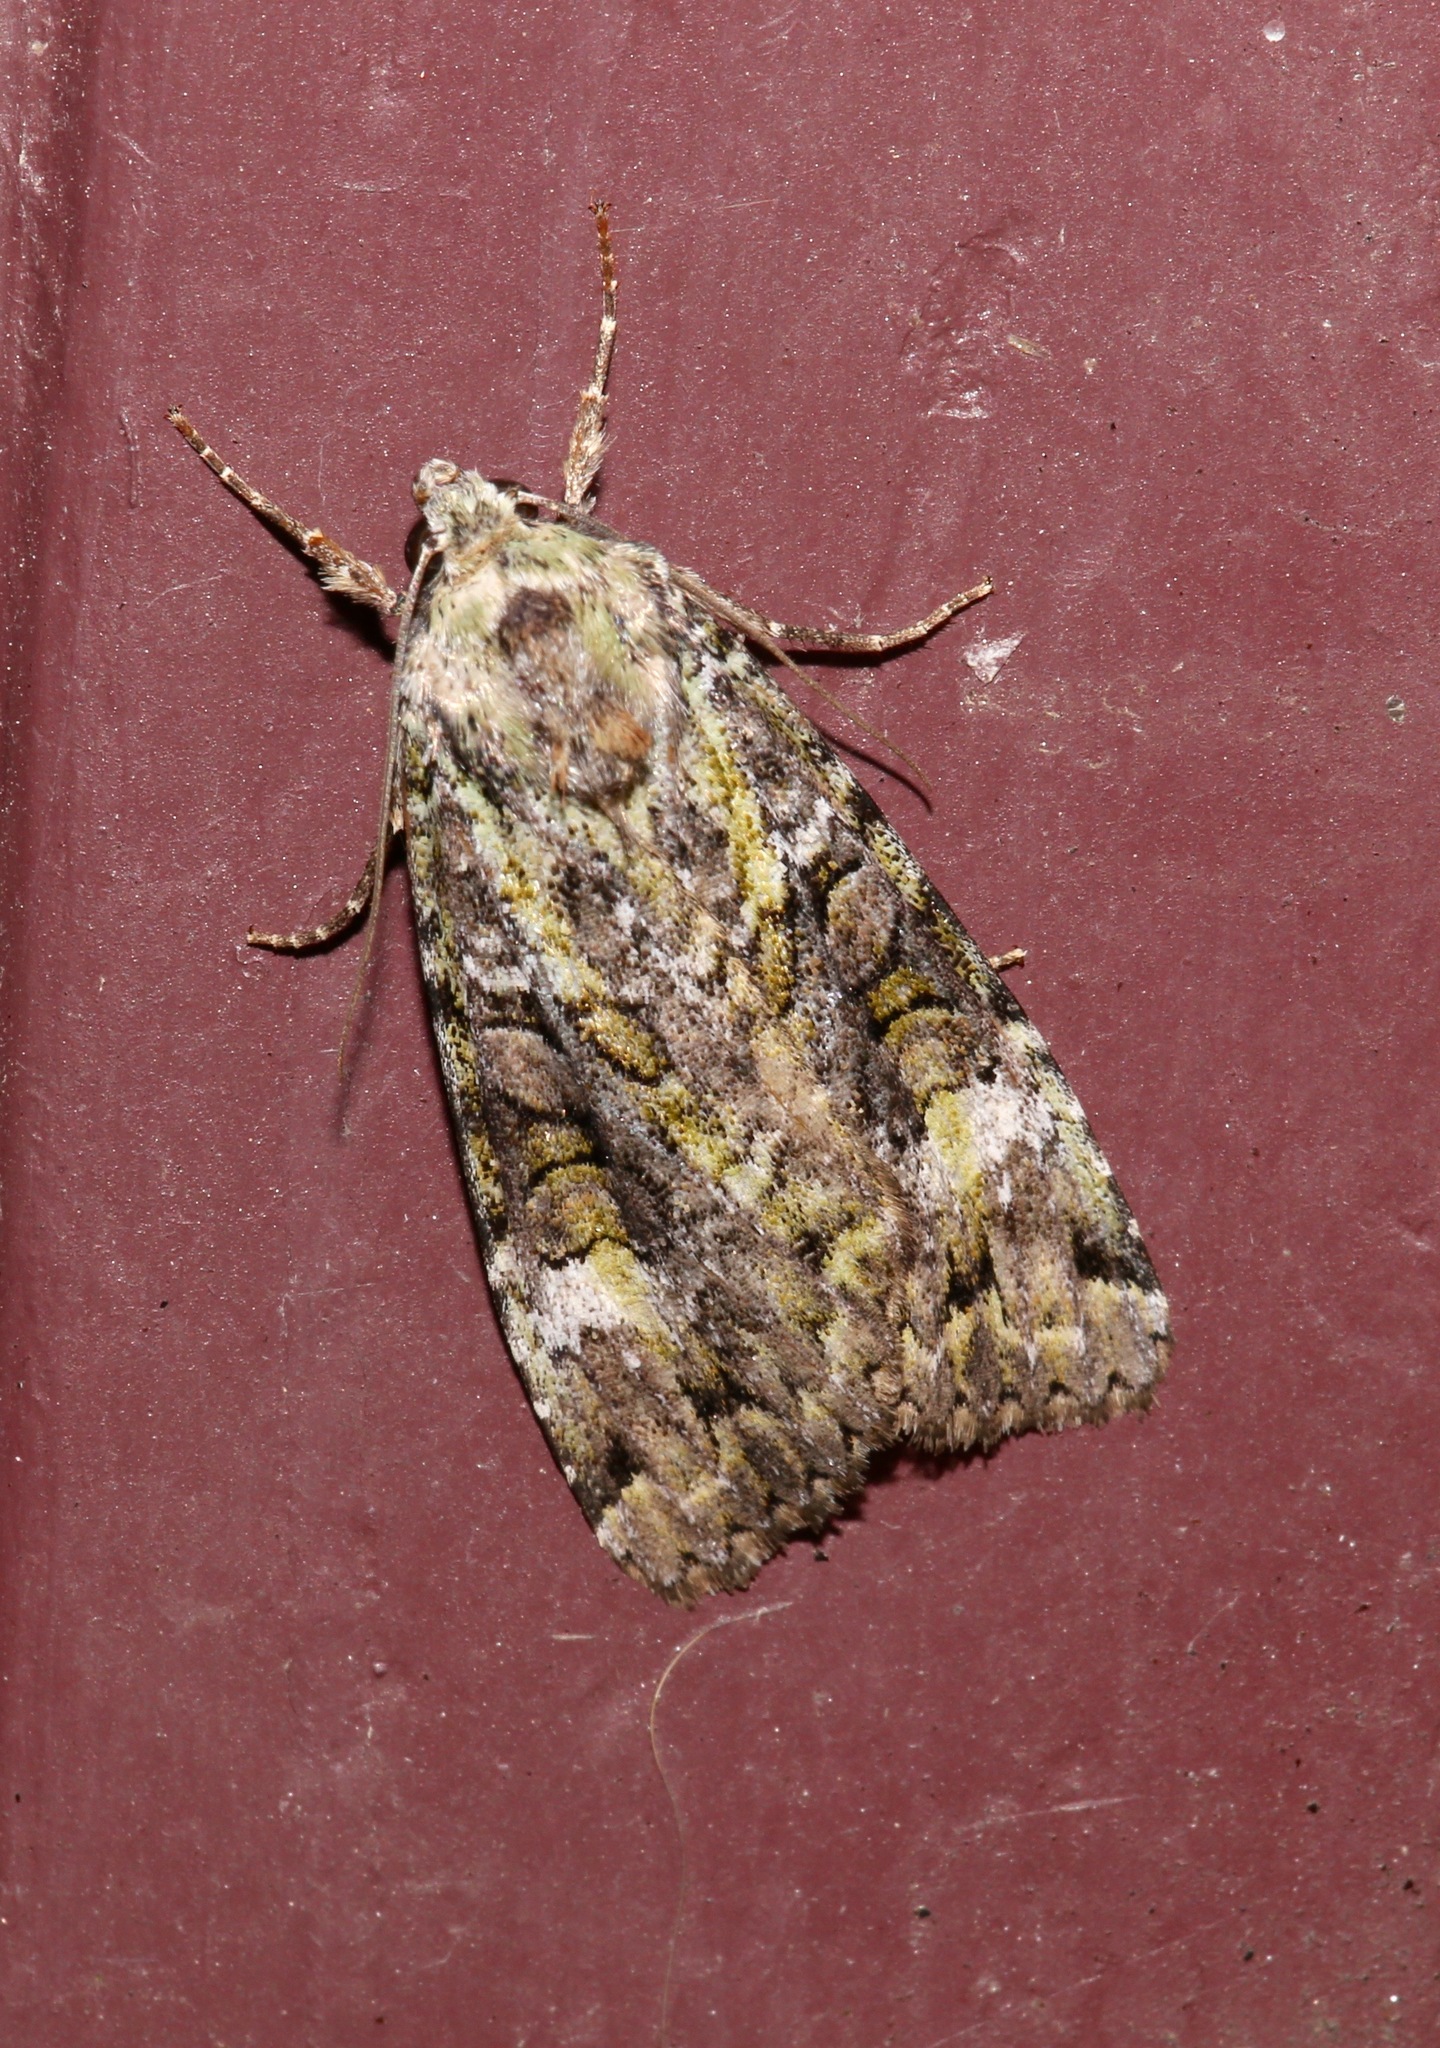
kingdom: Animalia
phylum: Arthropoda
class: Insecta
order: Lepidoptera
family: Noctuidae
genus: Anaplectoides
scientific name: Anaplectoides prasina
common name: Green arches
